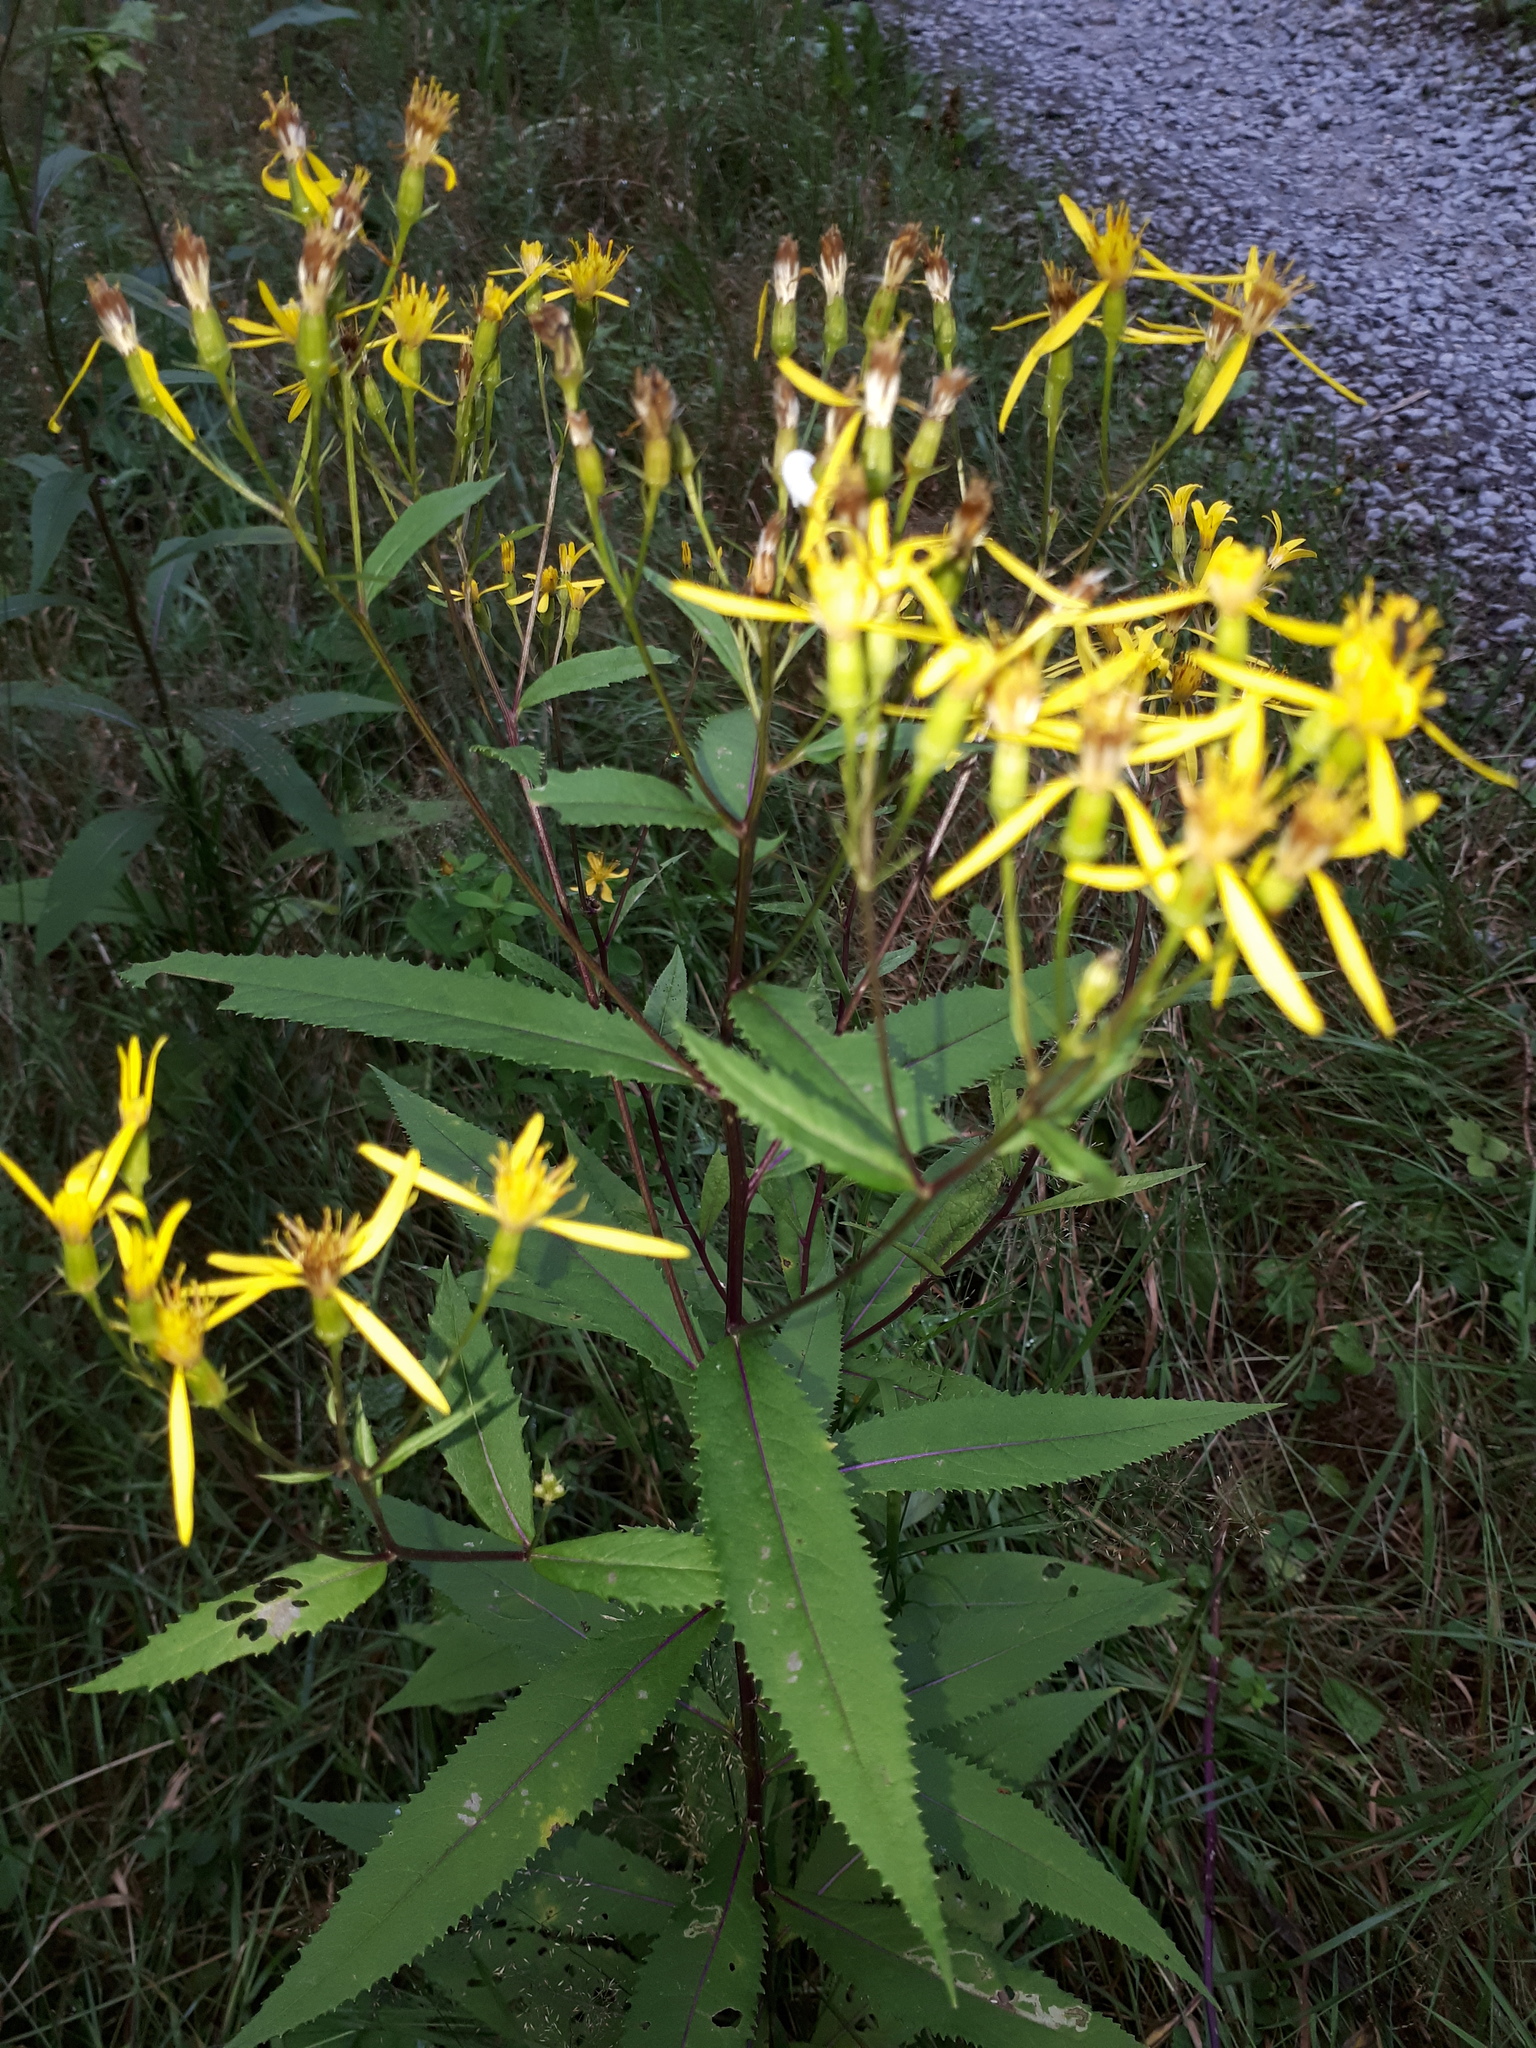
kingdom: Plantae
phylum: Tracheophyta
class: Magnoliopsida
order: Asterales
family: Asteraceae
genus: Senecio
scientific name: Senecio ovatus
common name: Wood ragwort
